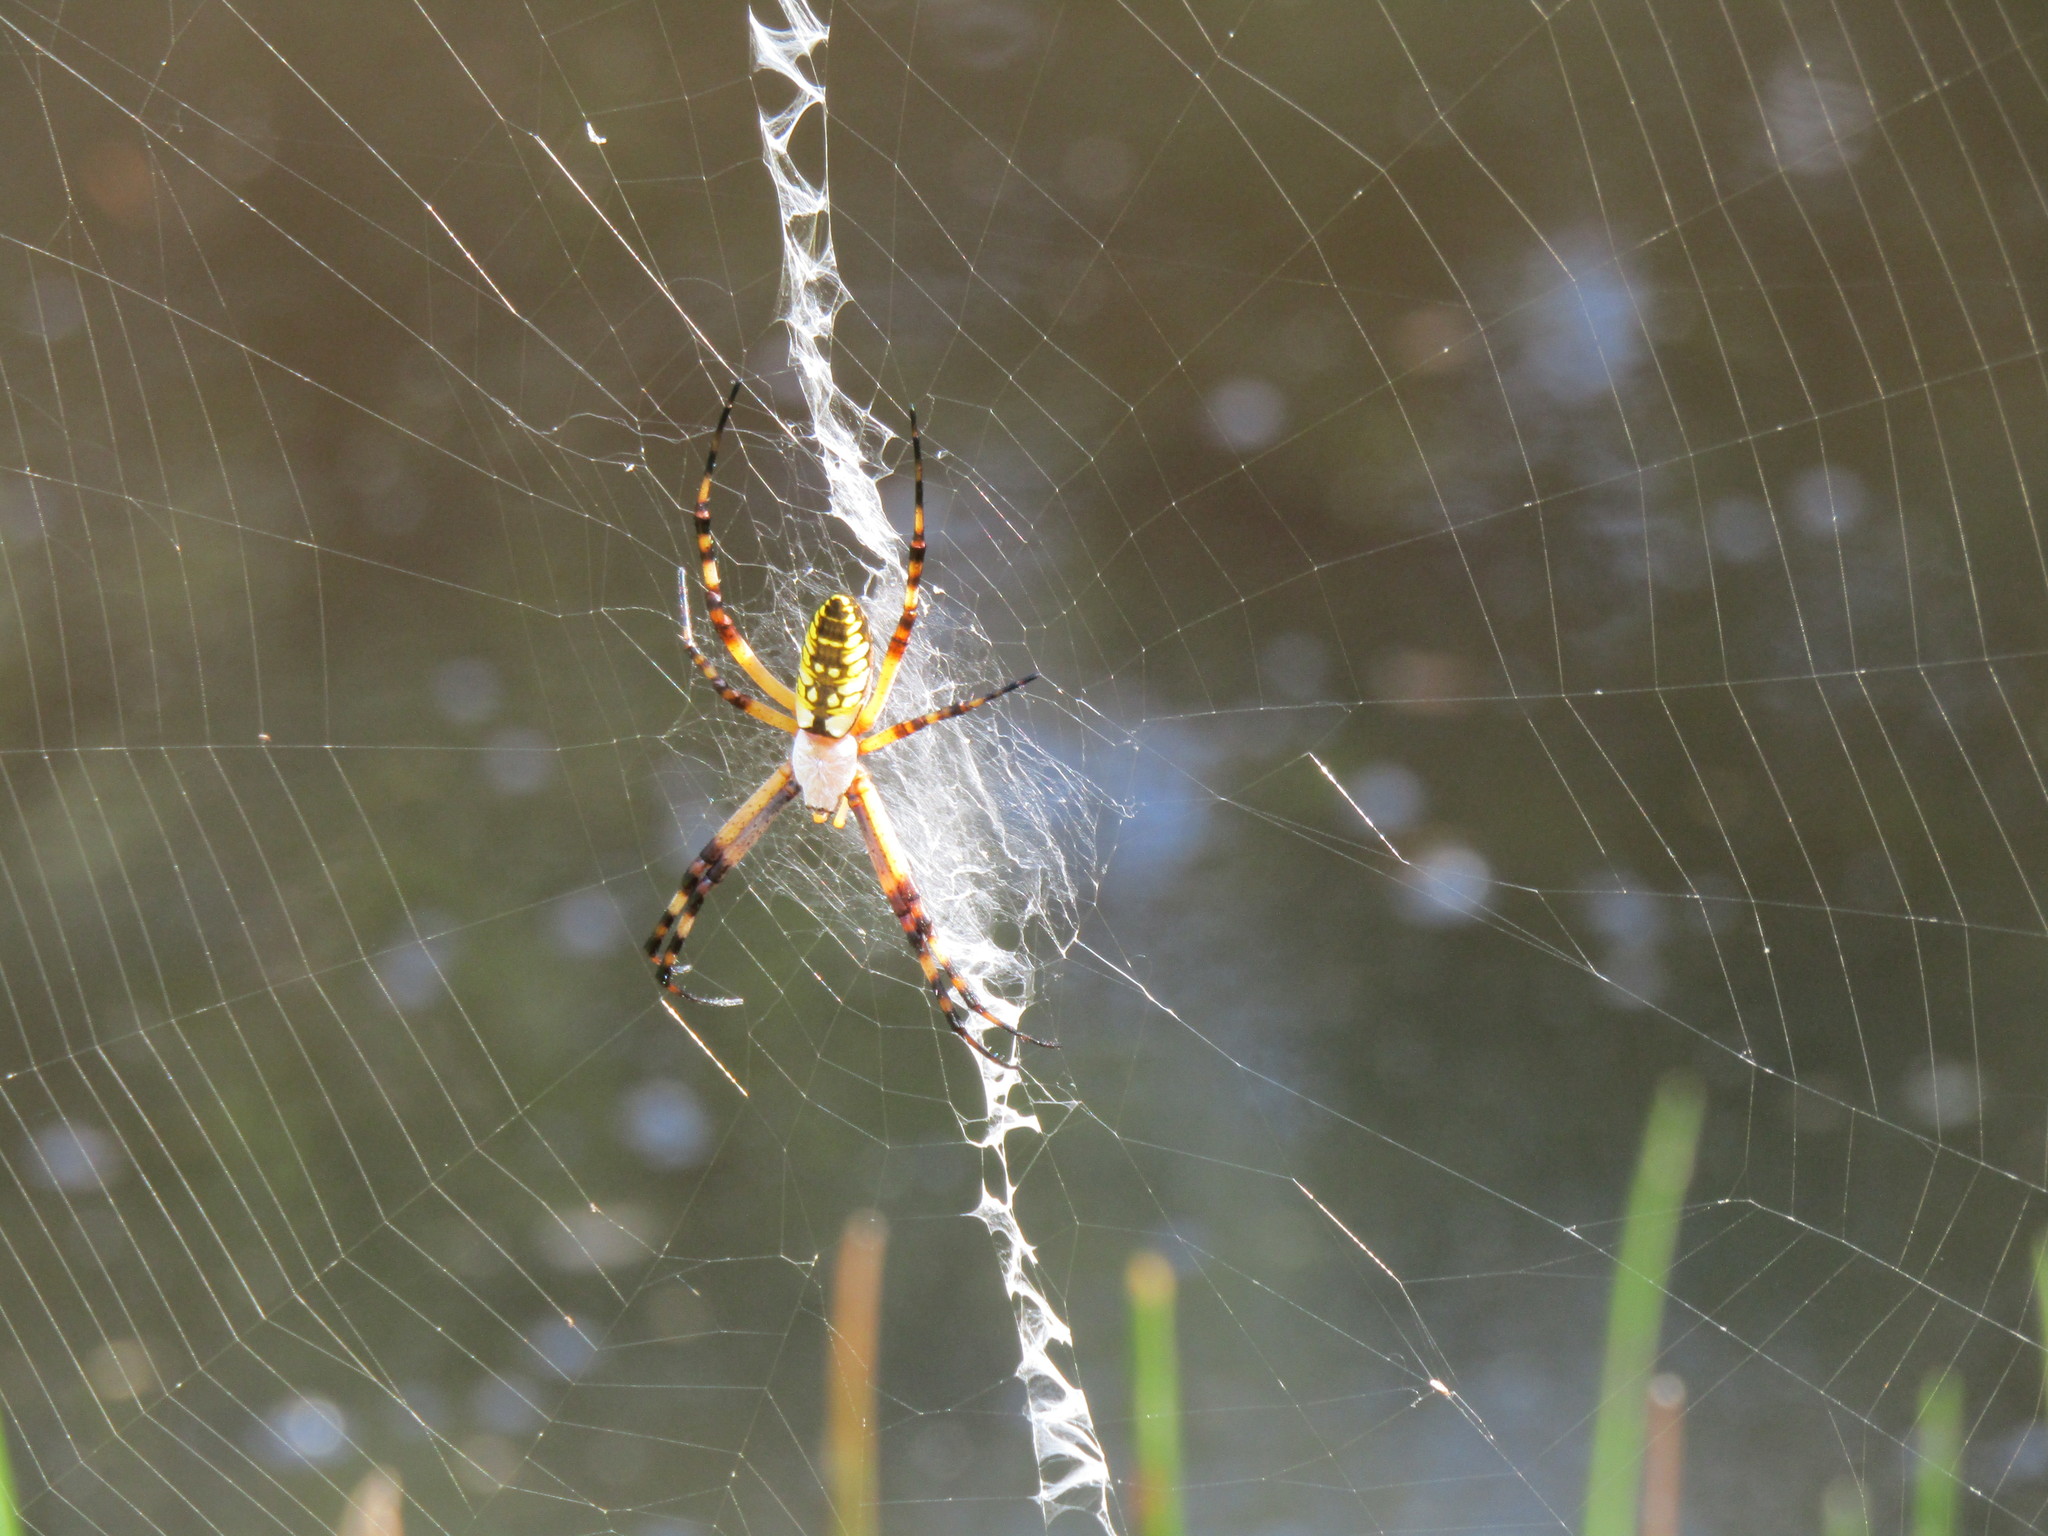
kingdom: Animalia
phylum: Arthropoda
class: Arachnida
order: Araneae
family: Araneidae
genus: Argiope
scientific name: Argiope aurantia
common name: Orb weavers
